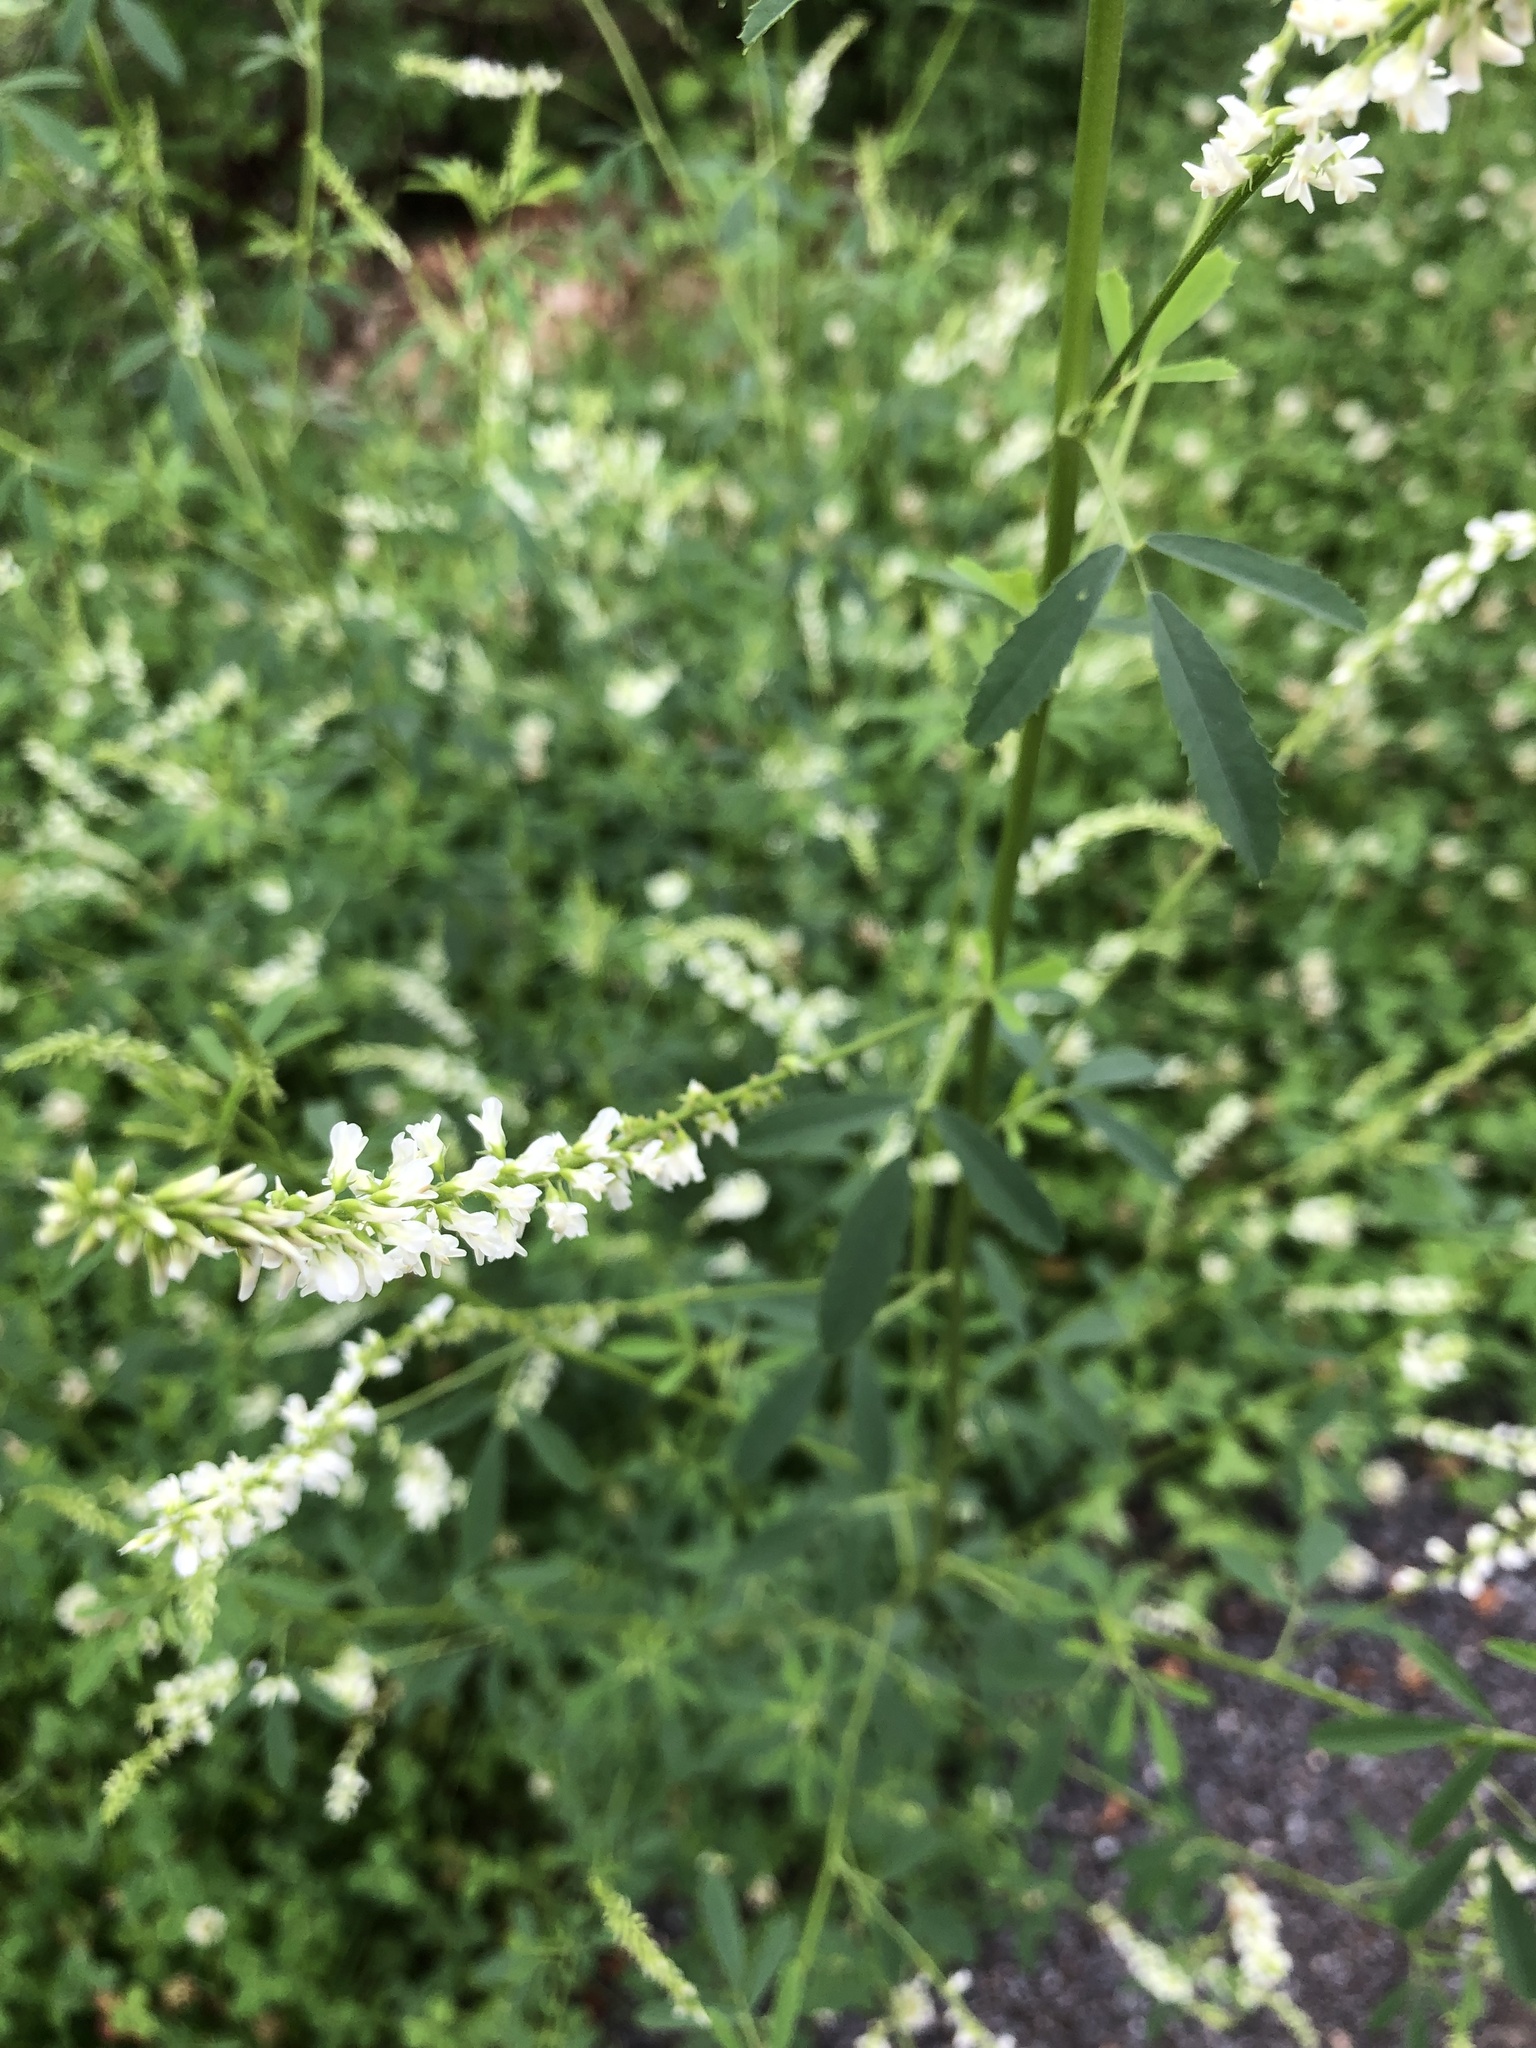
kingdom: Plantae
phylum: Tracheophyta
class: Magnoliopsida
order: Fabales
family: Fabaceae
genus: Melilotus
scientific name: Melilotus albus
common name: White melilot
